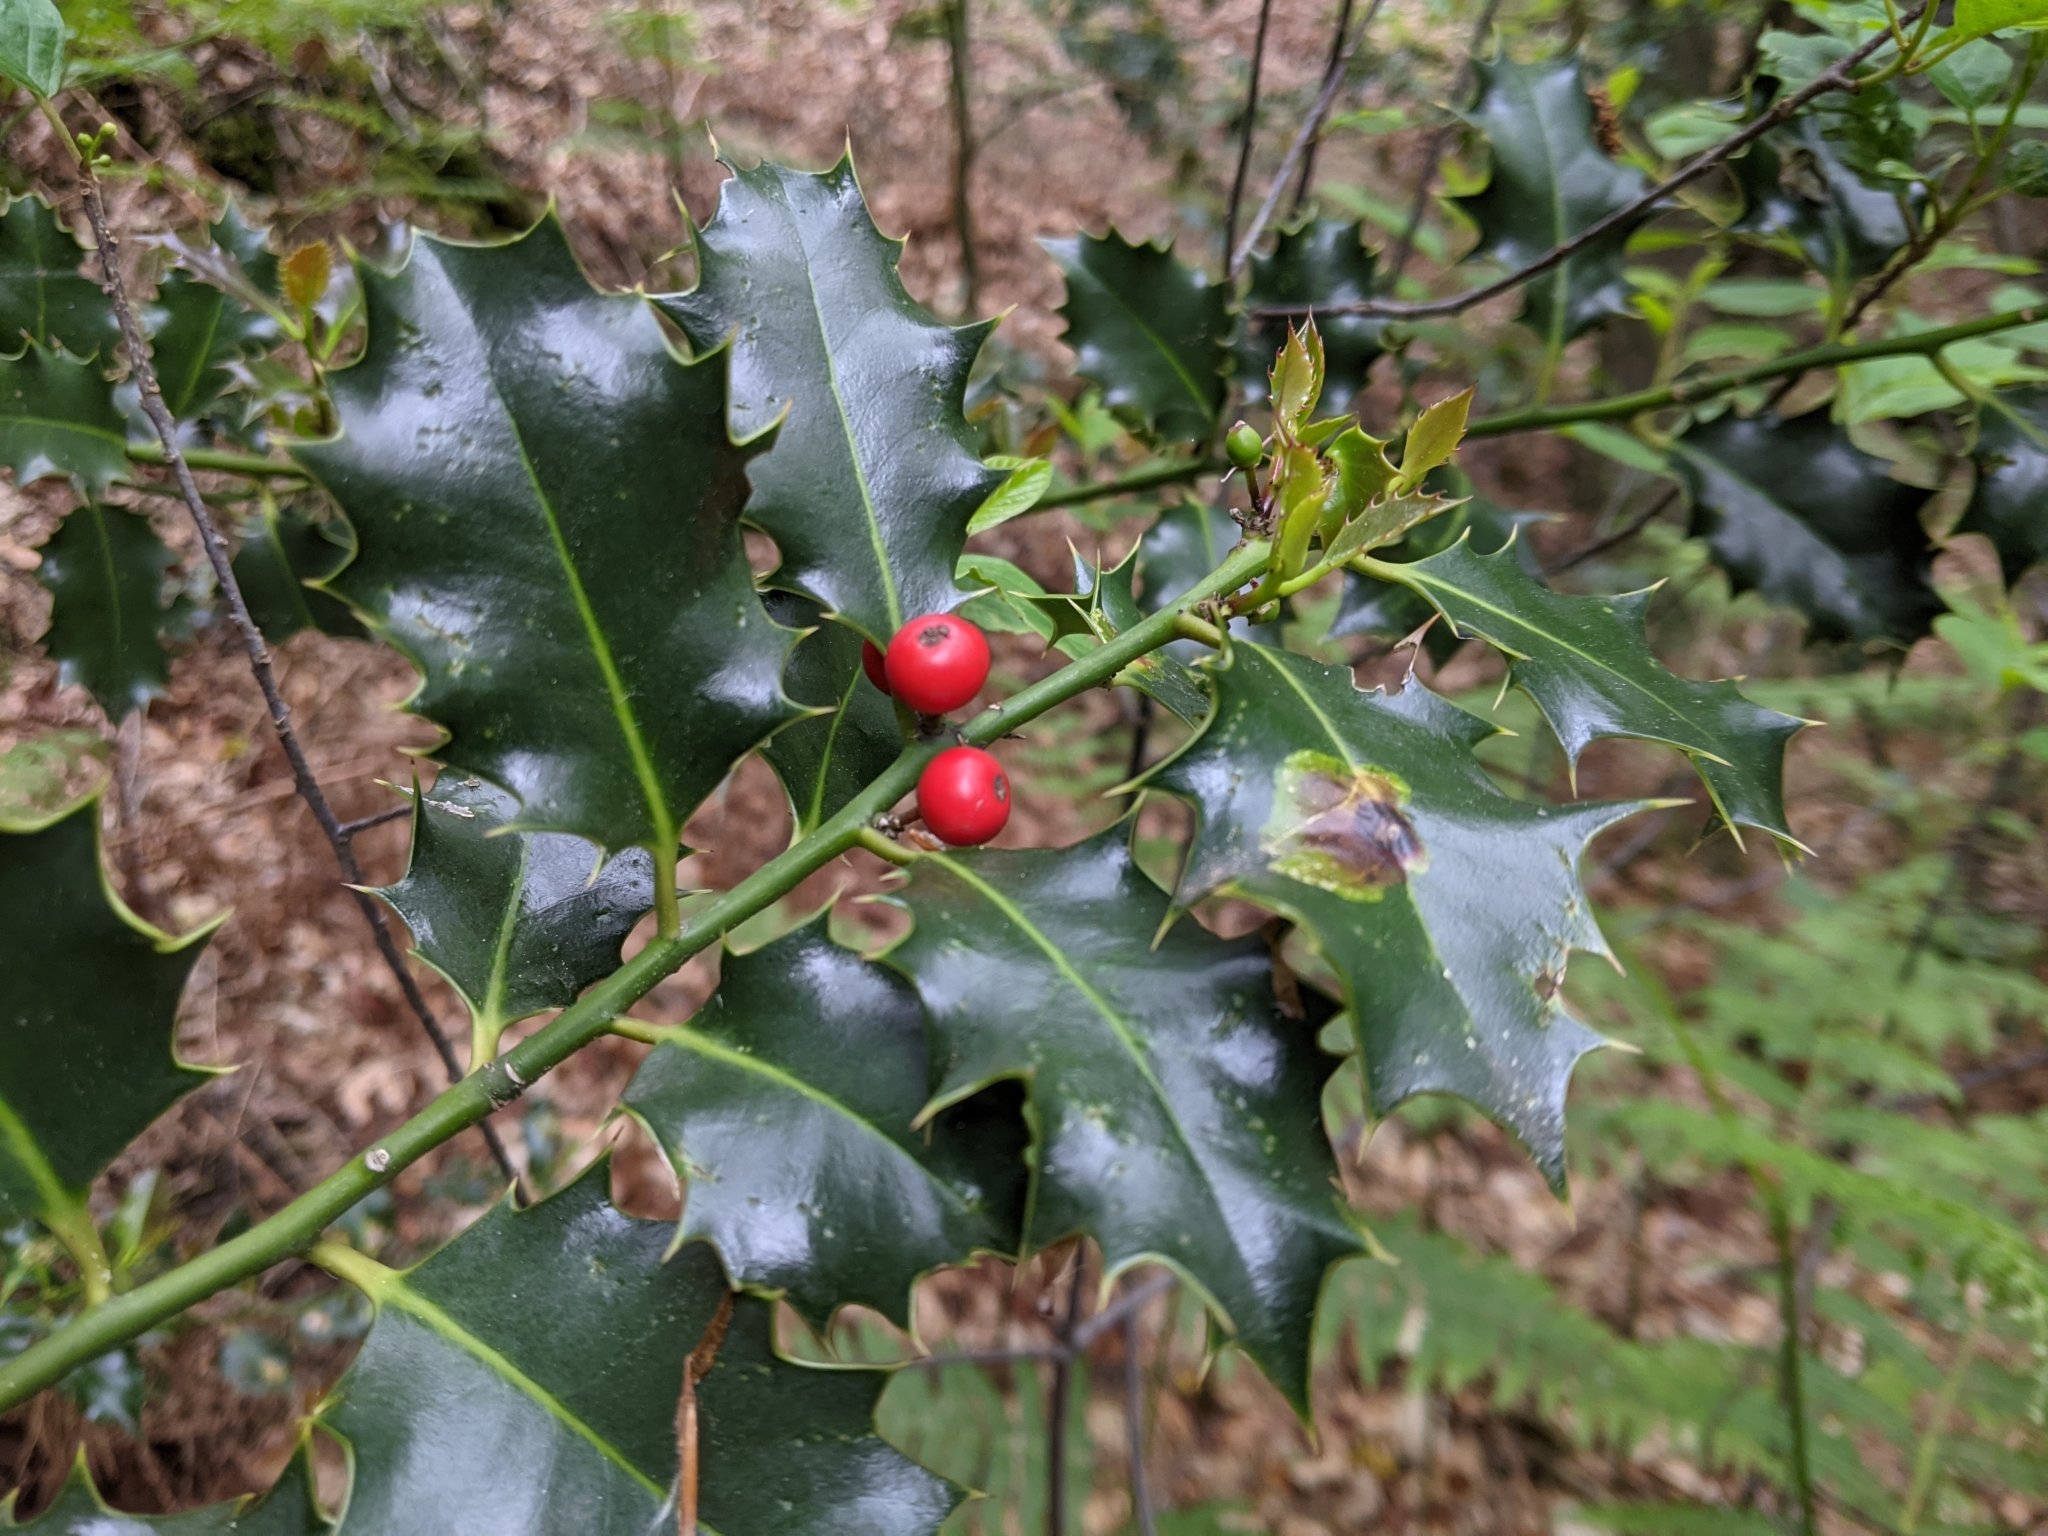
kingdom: Plantae
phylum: Tracheophyta
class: Magnoliopsida
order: Aquifoliales
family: Aquifoliaceae
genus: Ilex
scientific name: Ilex aquifolium
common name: English holly
